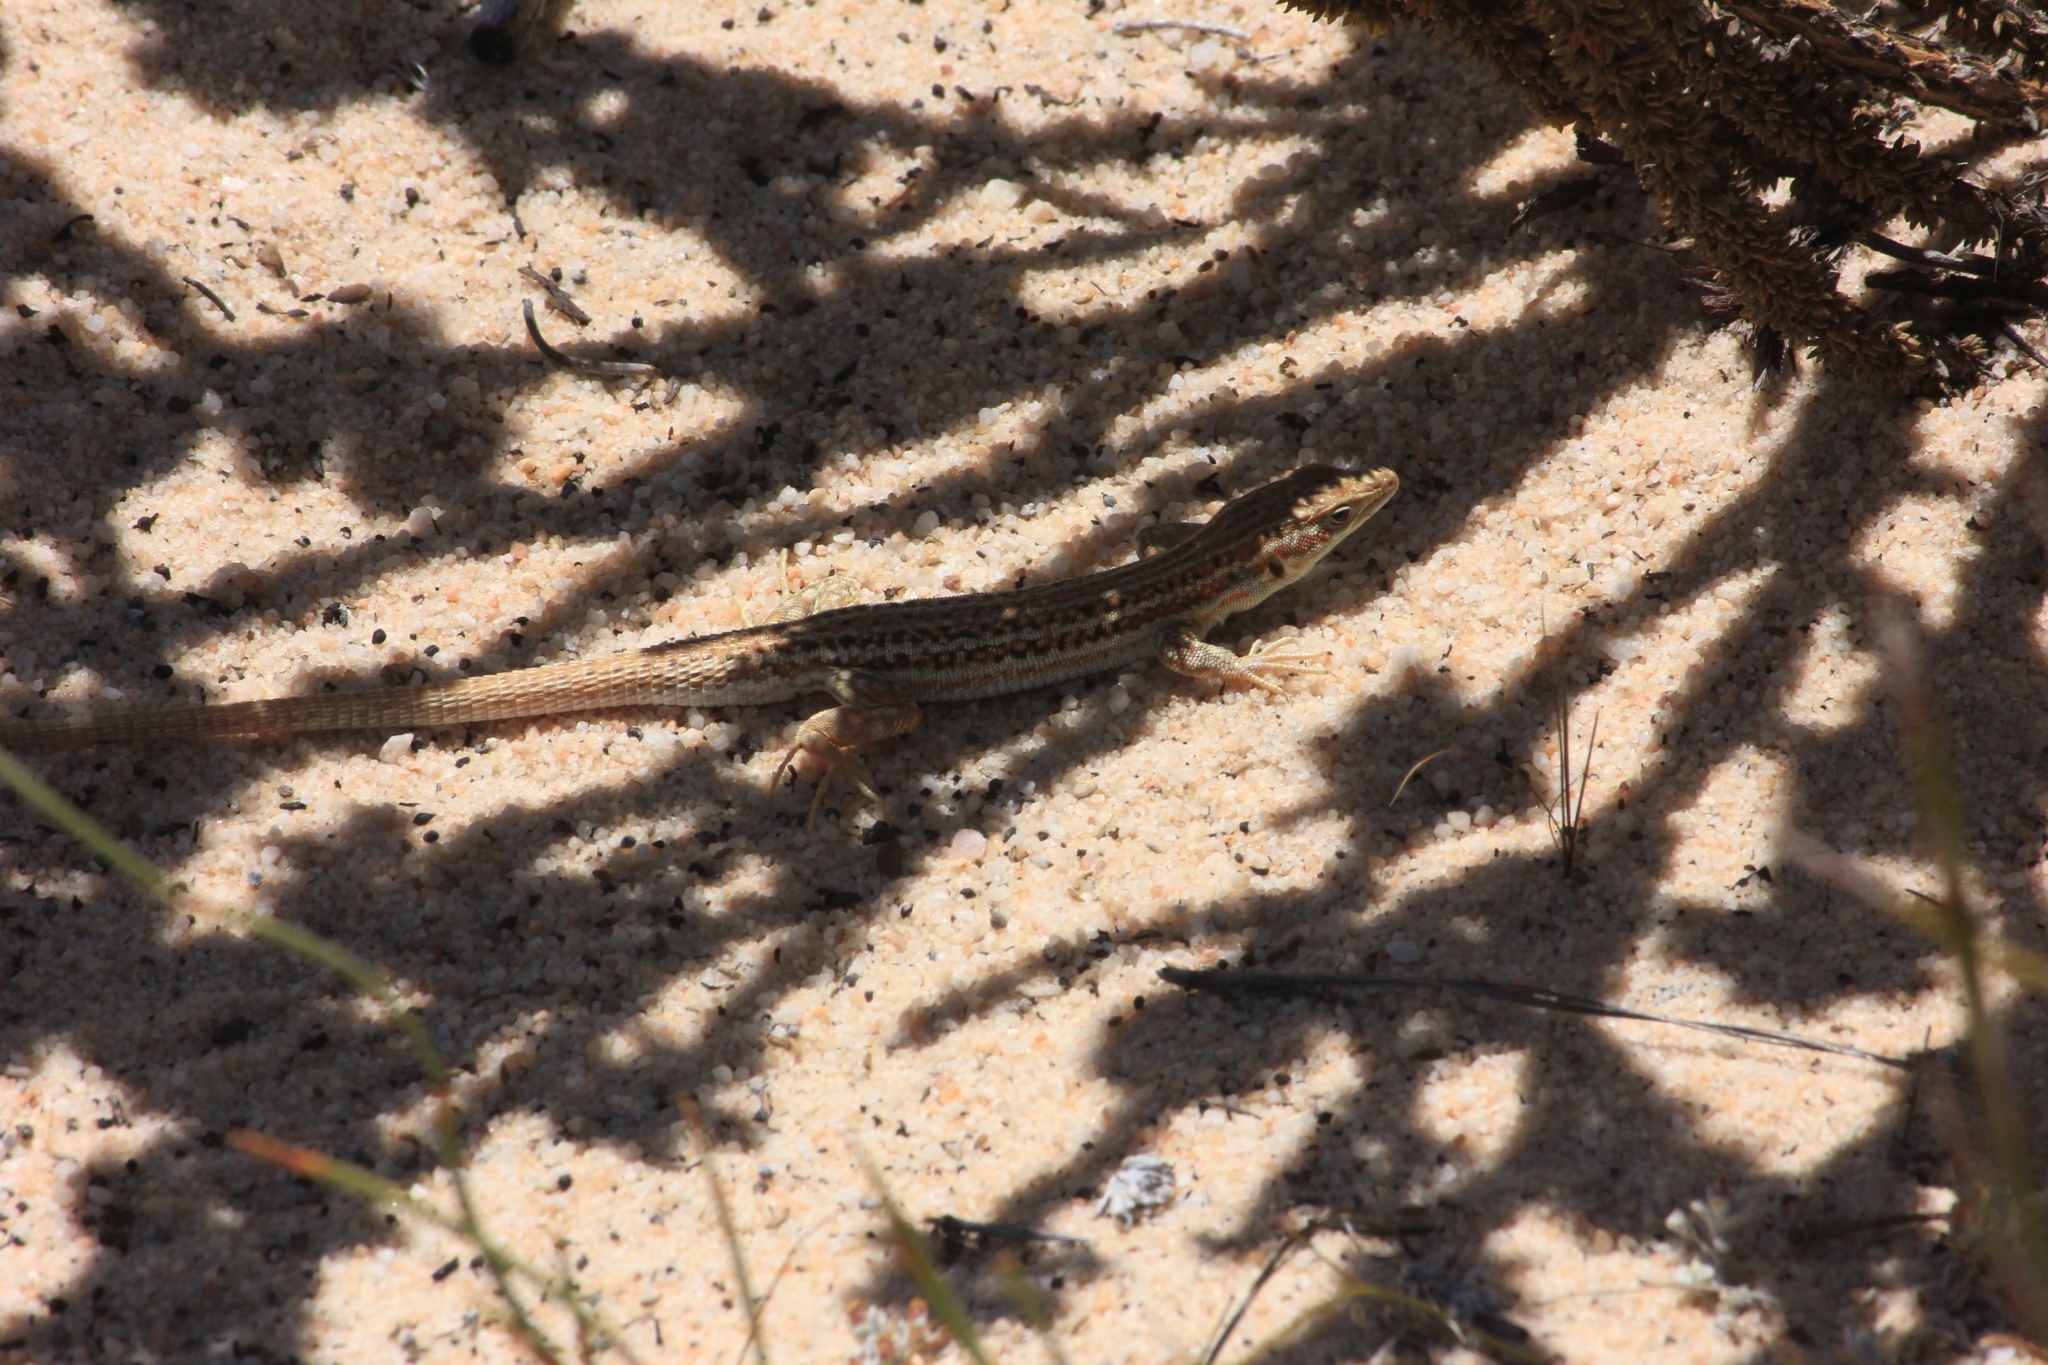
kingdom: Animalia
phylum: Chordata
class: Squamata
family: Lacertidae
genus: Pedioplanis
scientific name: Pedioplanis burchelli
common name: Burchell's sand lizard
